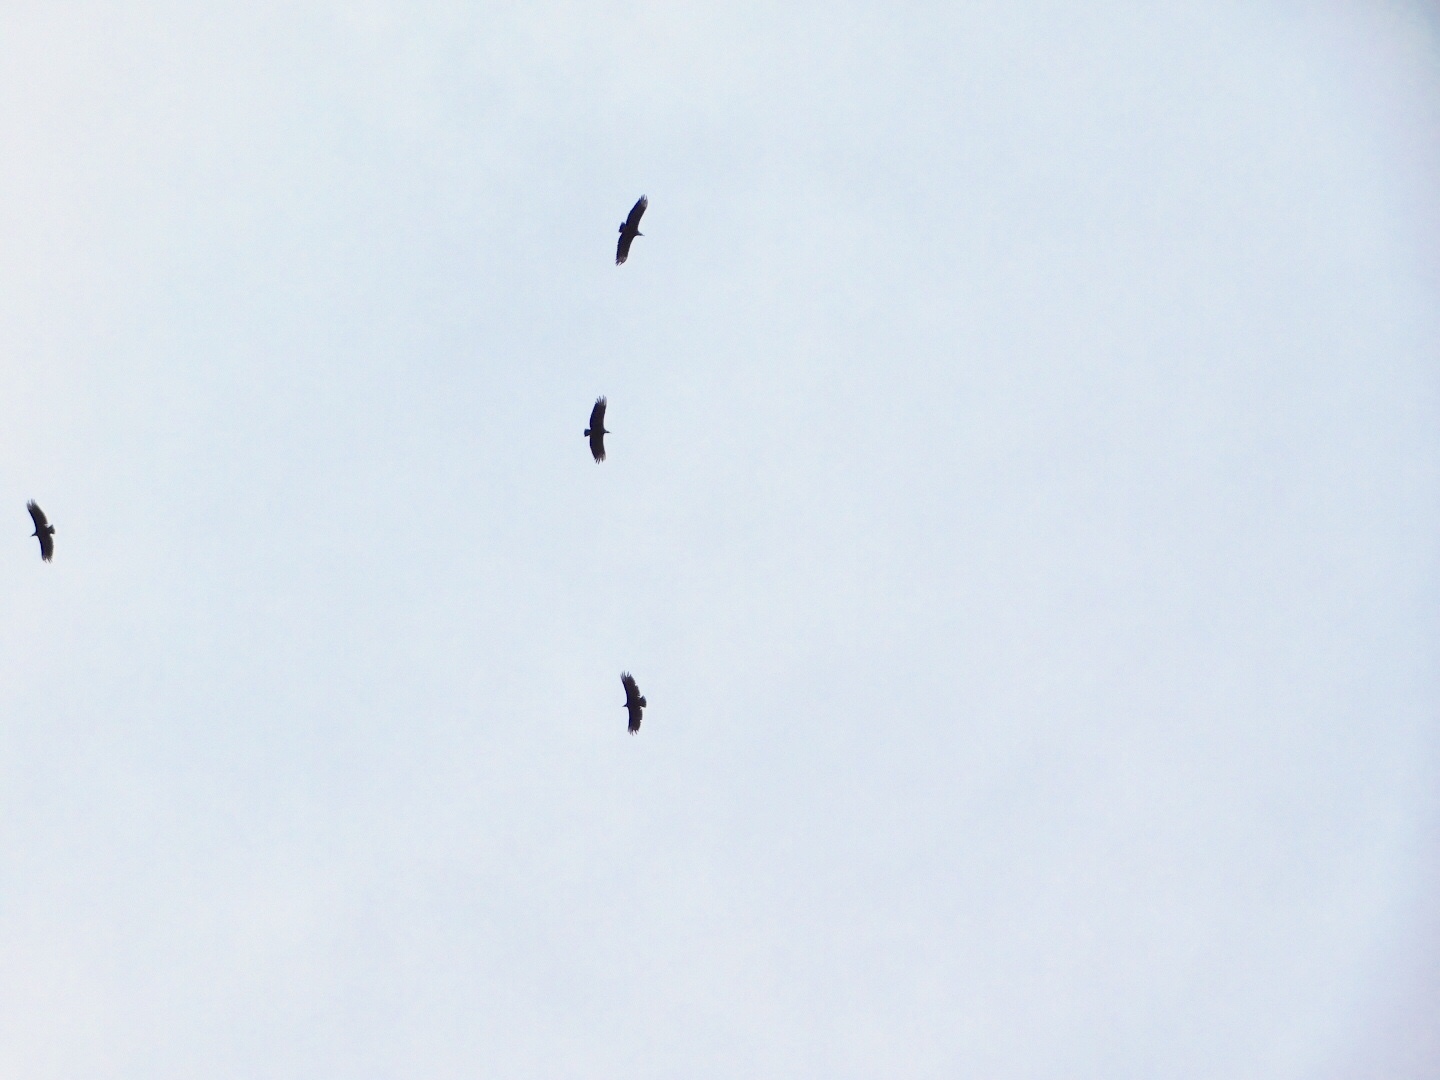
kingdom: Animalia
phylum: Chordata
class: Aves
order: Accipitriformes
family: Cathartidae
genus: Coragyps
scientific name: Coragyps atratus
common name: Black vulture
